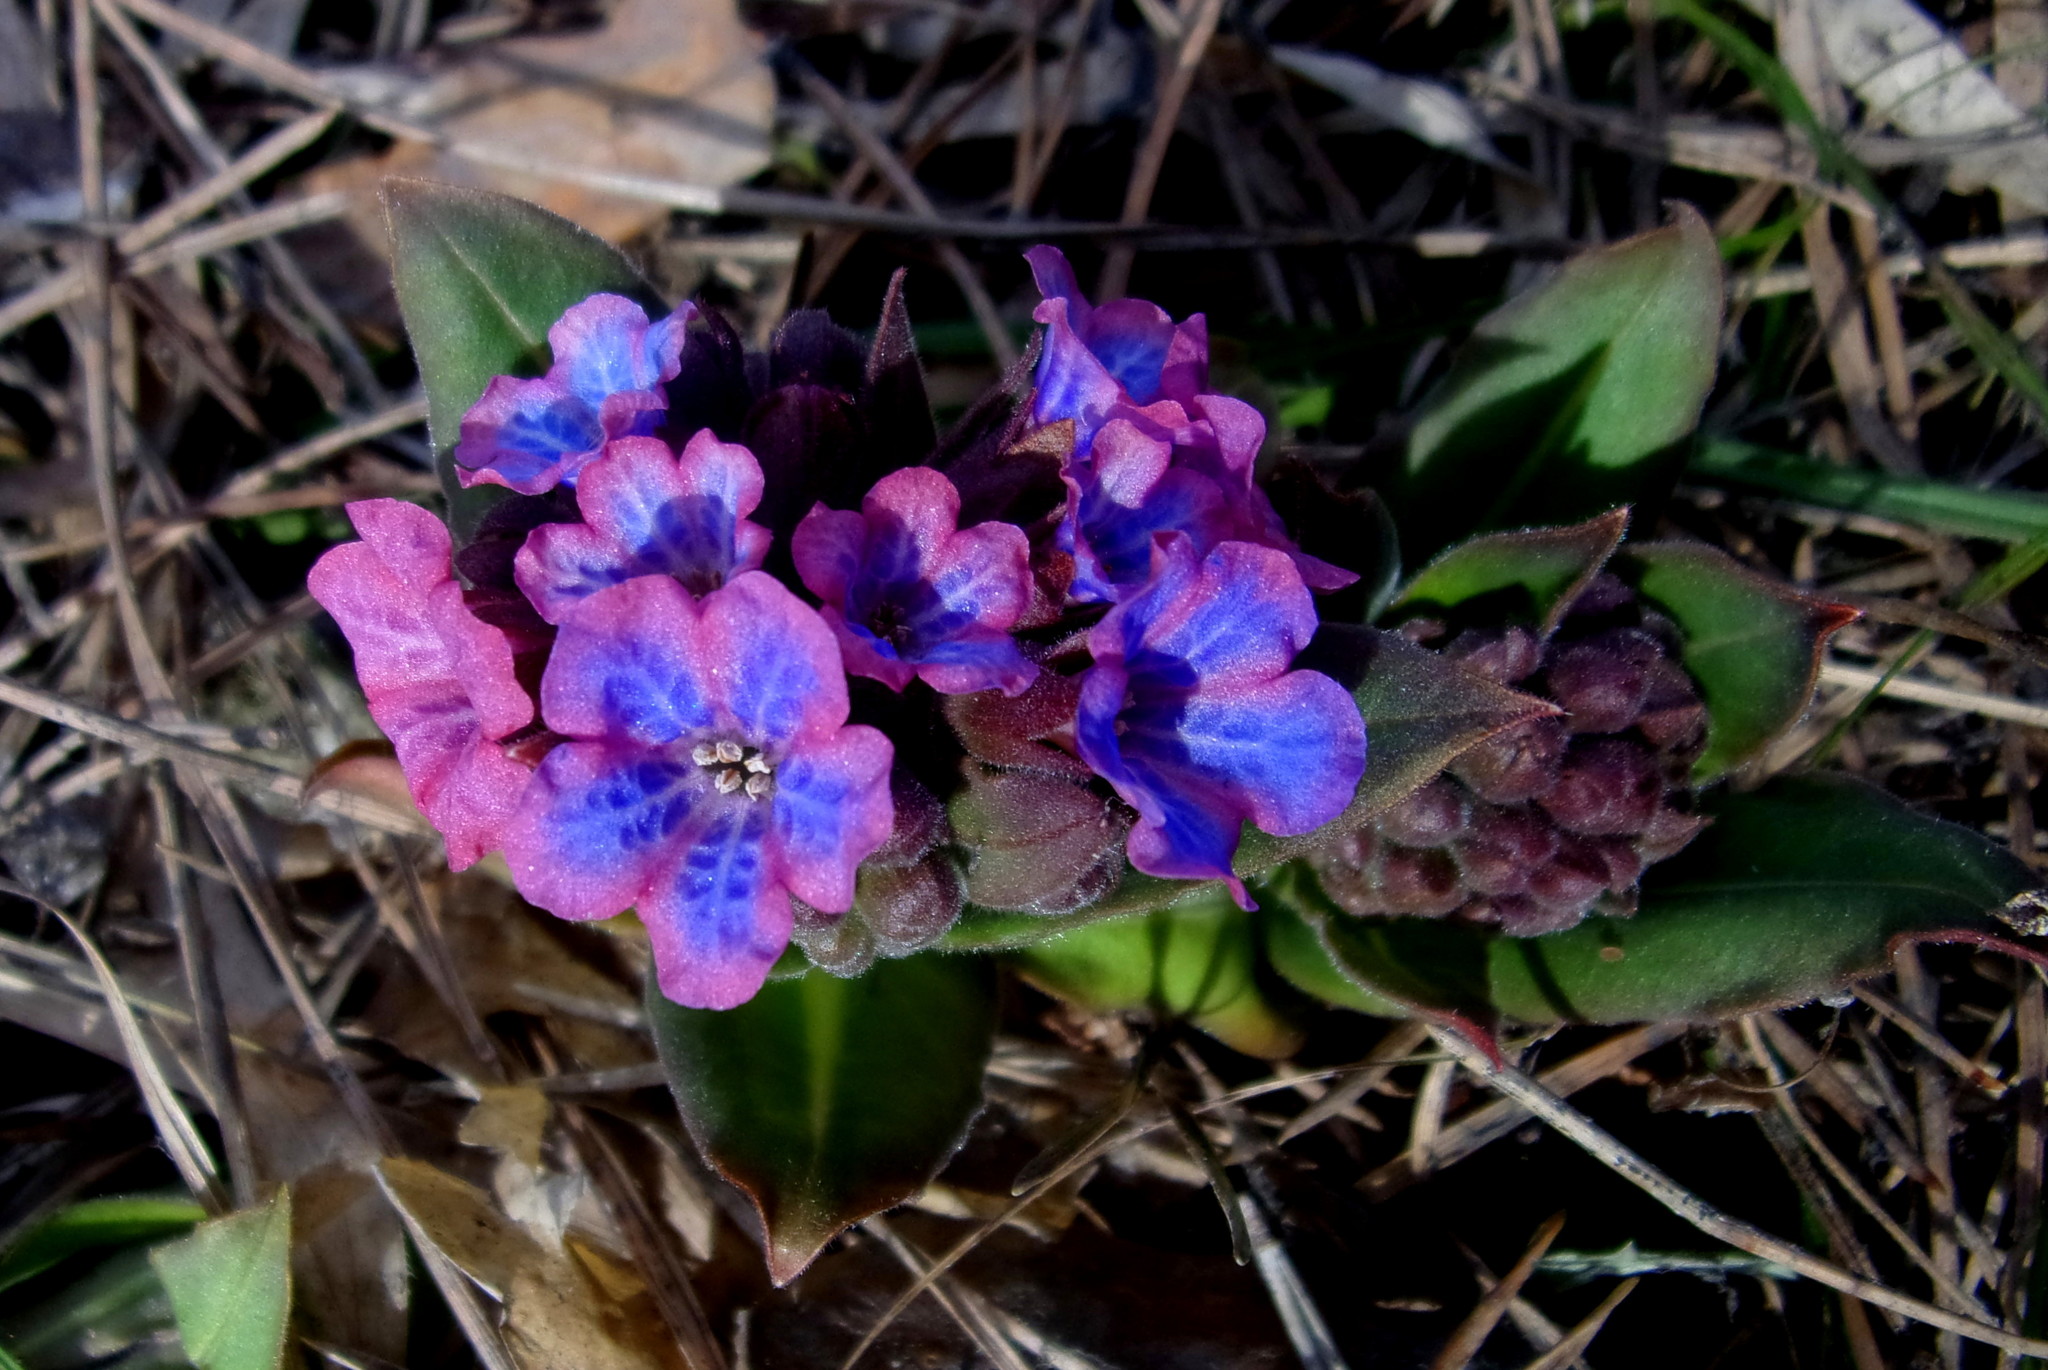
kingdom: Plantae
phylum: Tracheophyta
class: Magnoliopsida
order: Boraginales
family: Boraginaceae
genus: Pulmonaria
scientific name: Pulmonaria mollis
